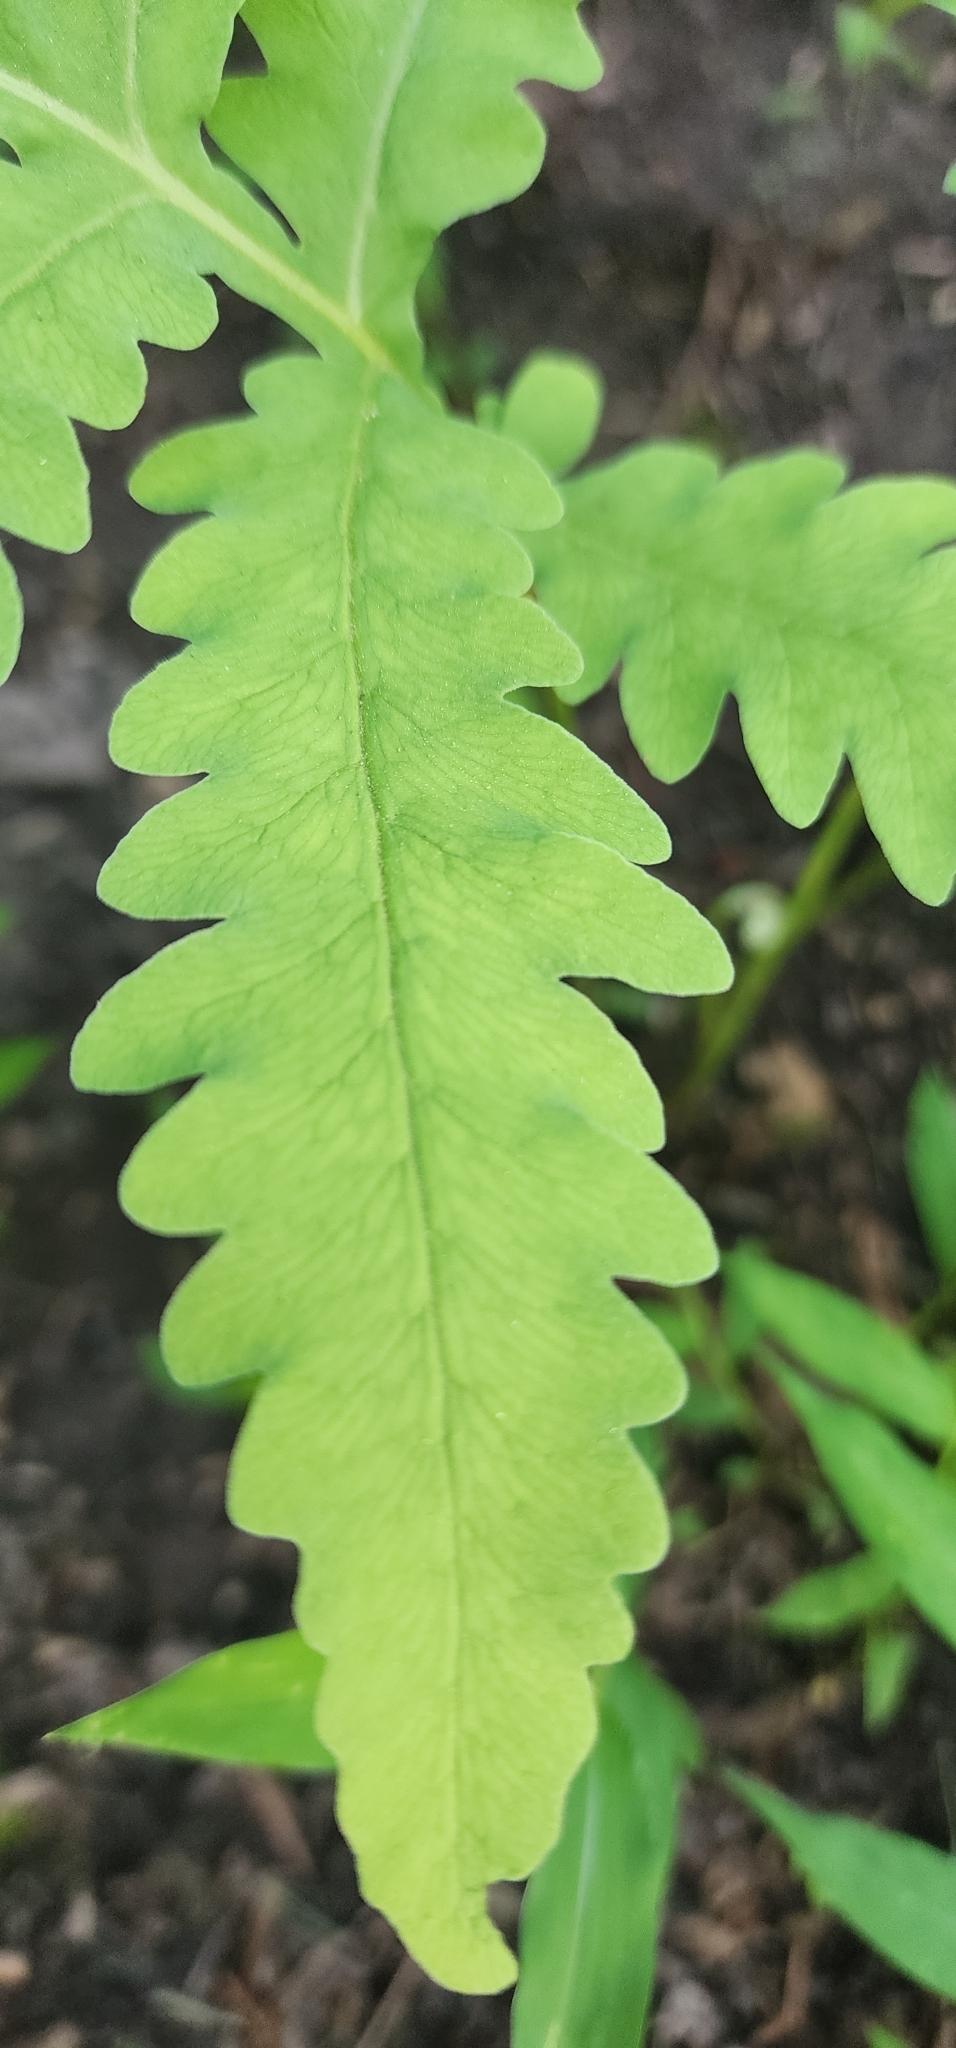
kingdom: Plantae
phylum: Tracheophyta
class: Polypodiopsida
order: Polypodiales
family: Onocleaceae
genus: Onoclea
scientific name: Onoclea sensibilis
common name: Sensitive fern
